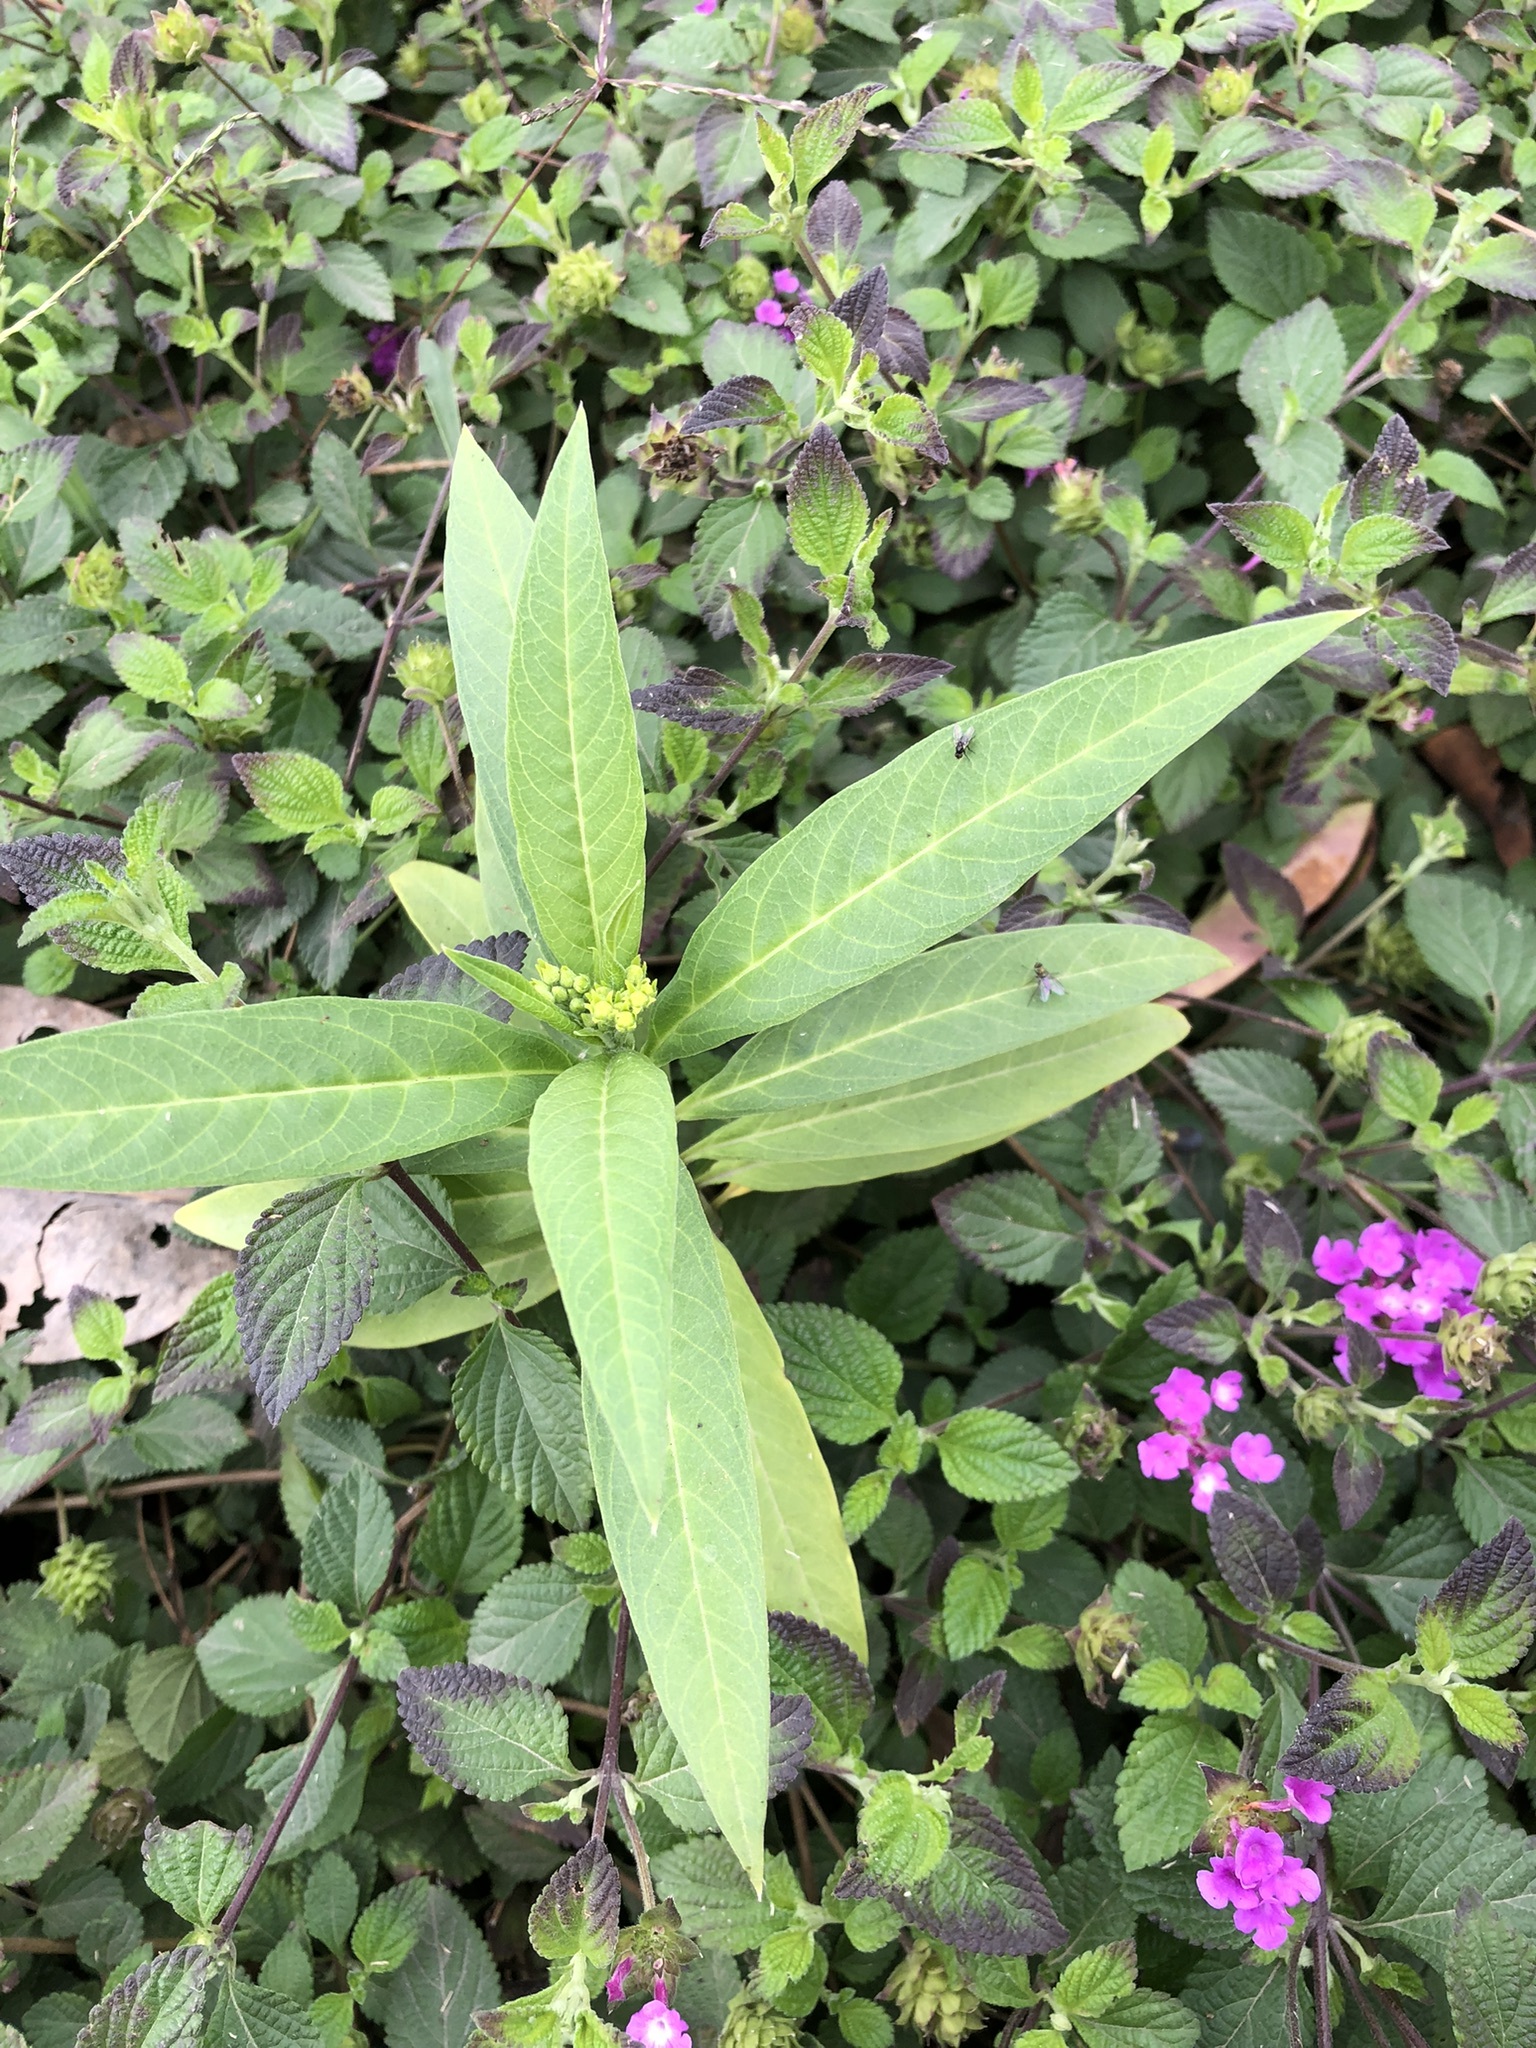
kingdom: Plantae
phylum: Tracheophyta
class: Magnoliopsida
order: Gentianales
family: Apocynaceae
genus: Asclepias
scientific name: Asclepias curassavica
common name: Bloodflower
